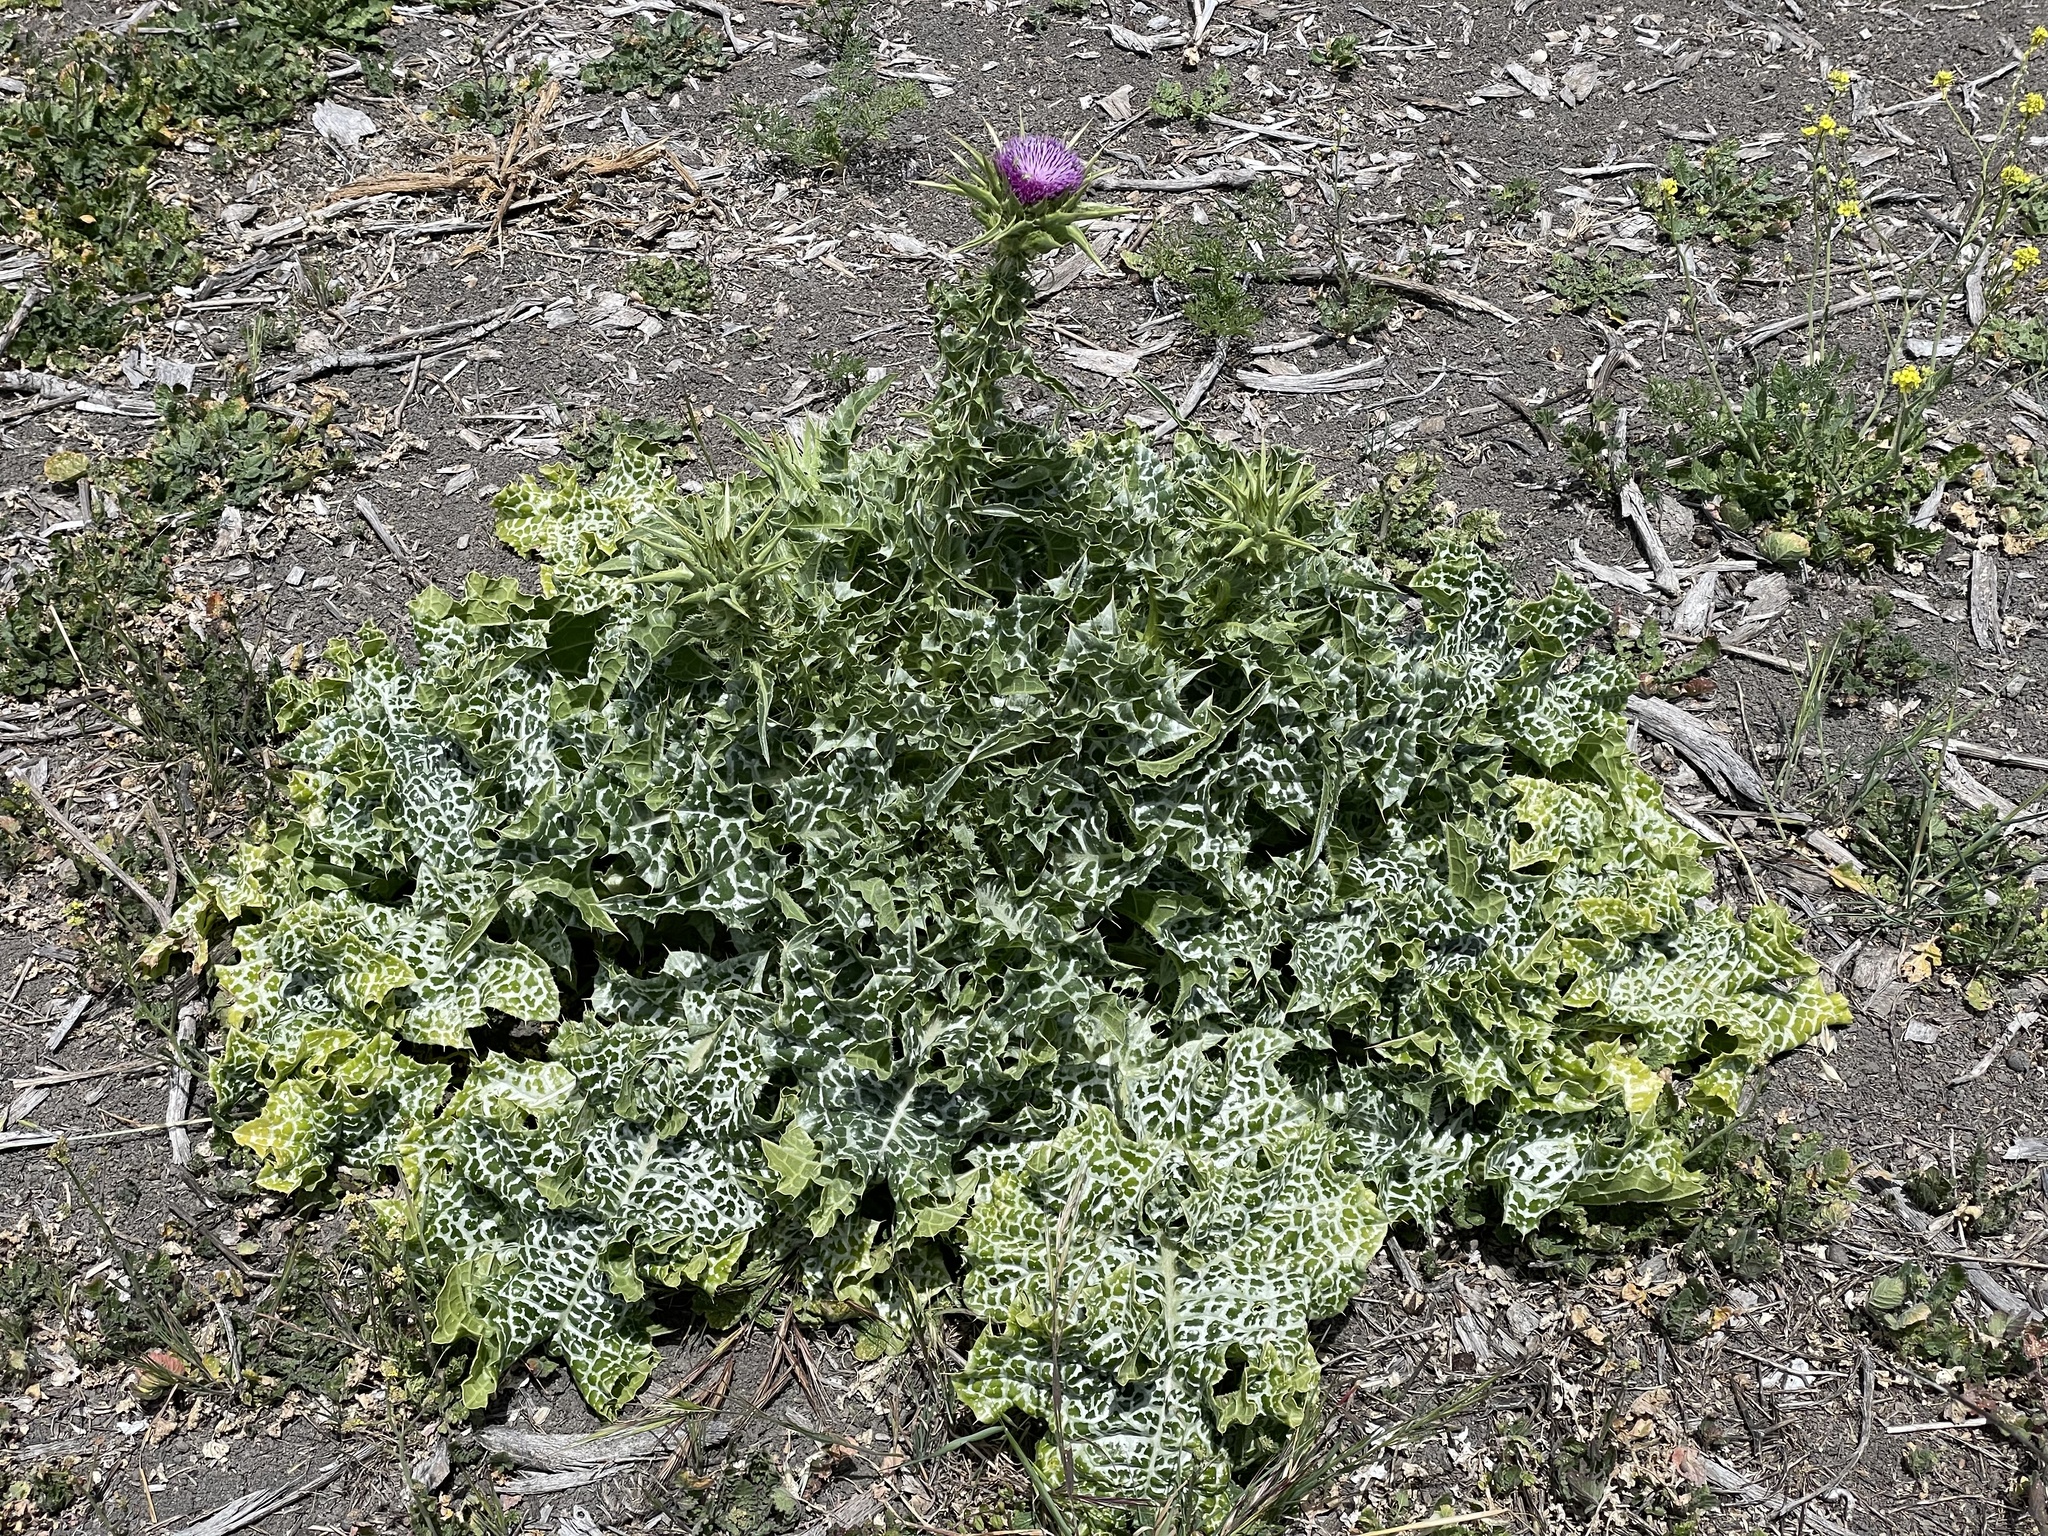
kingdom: Plantae
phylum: Tracheophyta
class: Magnoliopsida
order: Asterales
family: Asteraceae
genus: Silybum
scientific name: Silybum marianum
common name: Milk thistle
